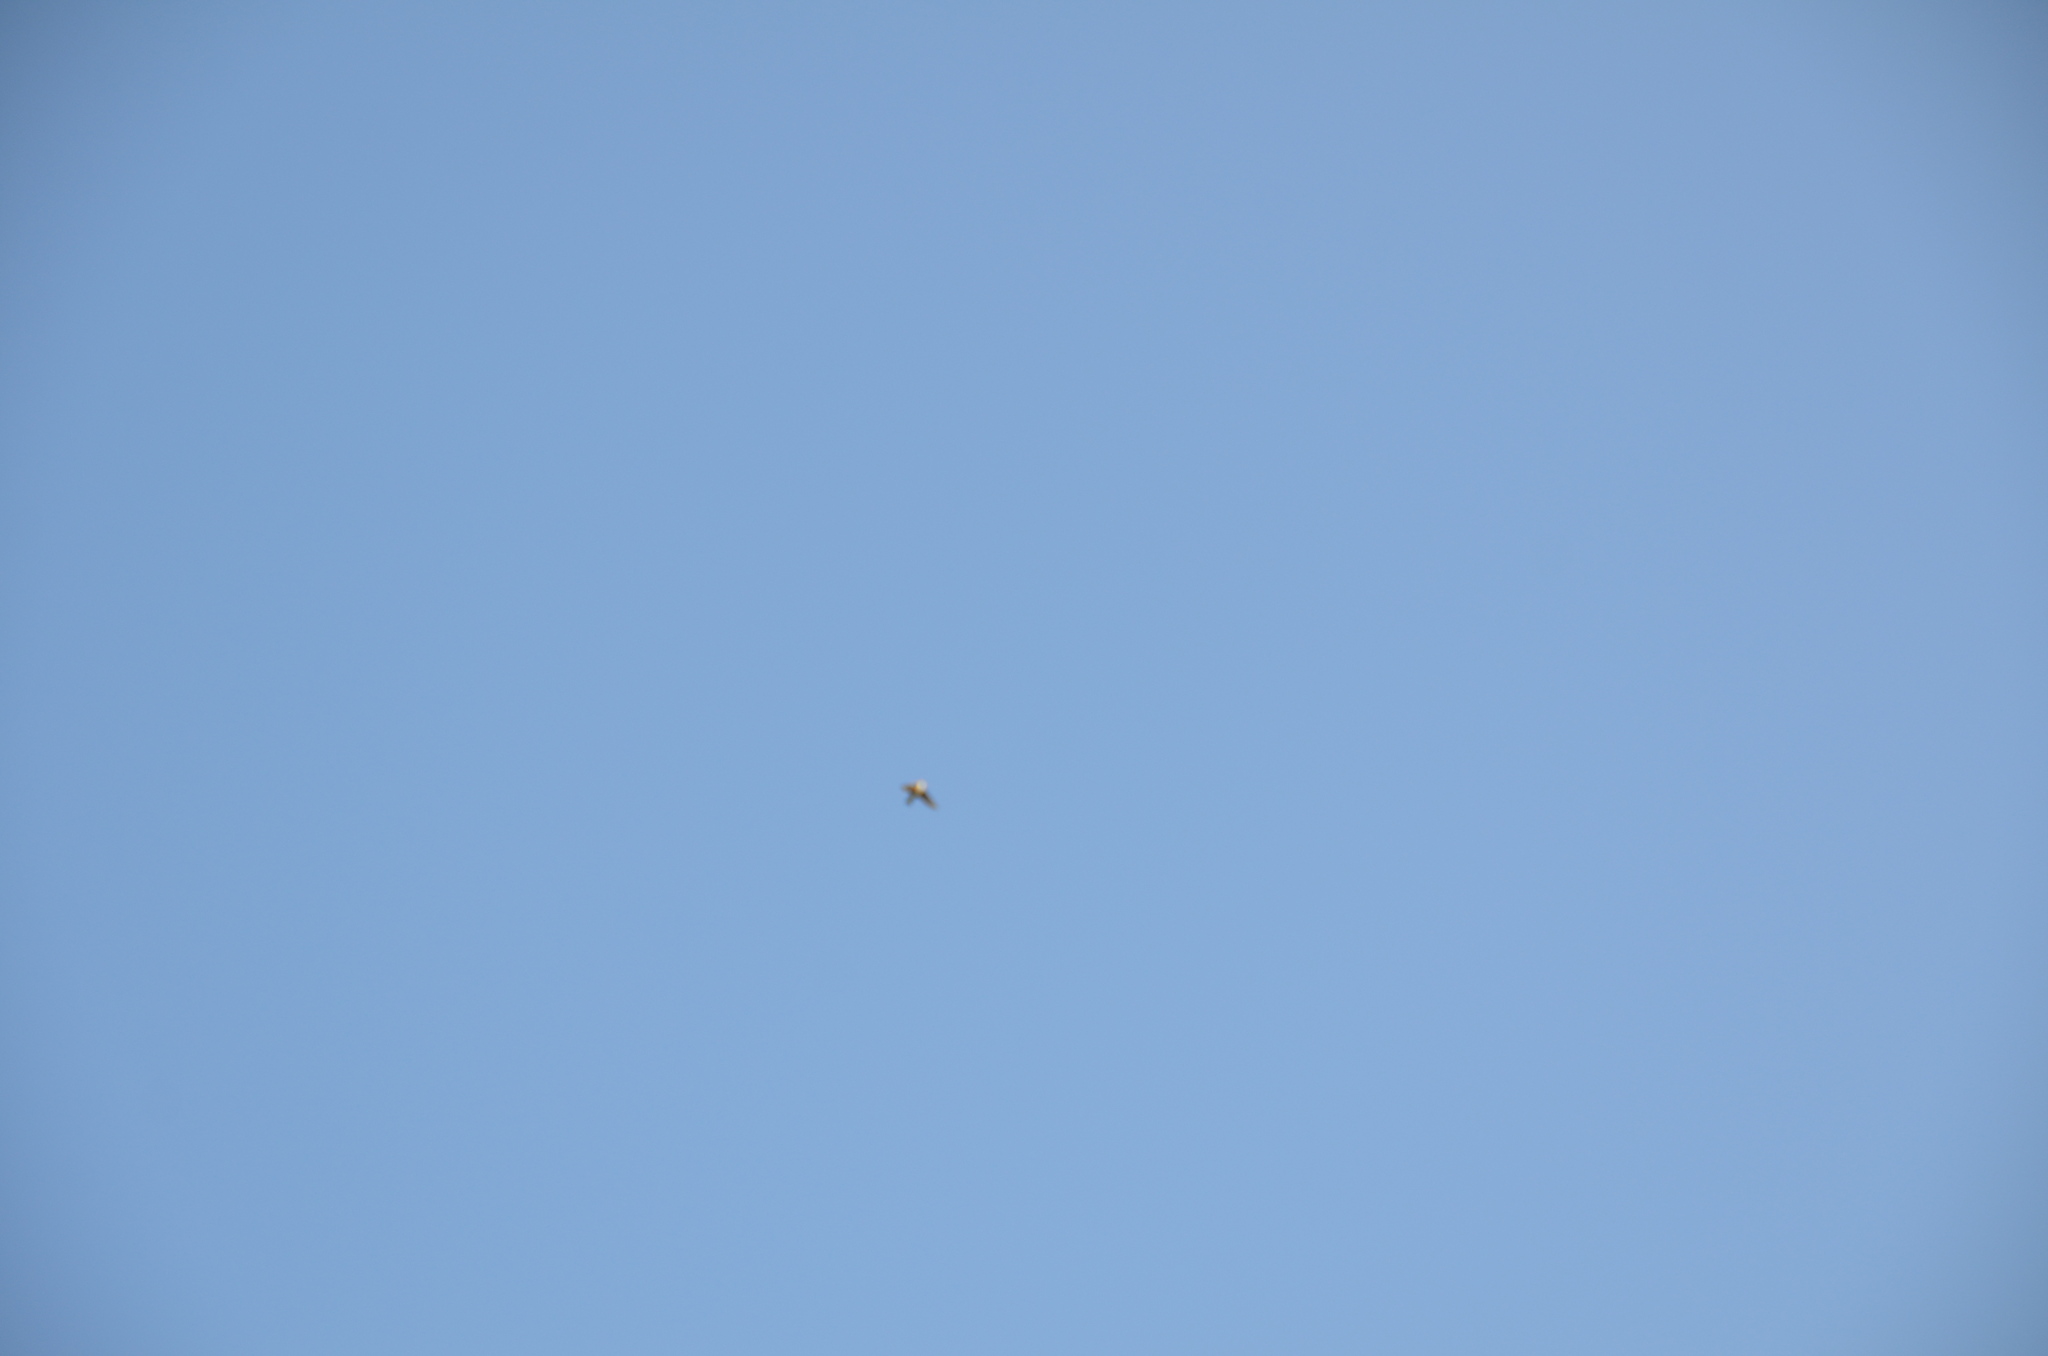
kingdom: Animalia
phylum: Chordata
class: Aves
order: Passeriformes
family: Hirundinidae
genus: Tachycineta
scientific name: Tachycineta thalassina
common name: Violet-green swallow
